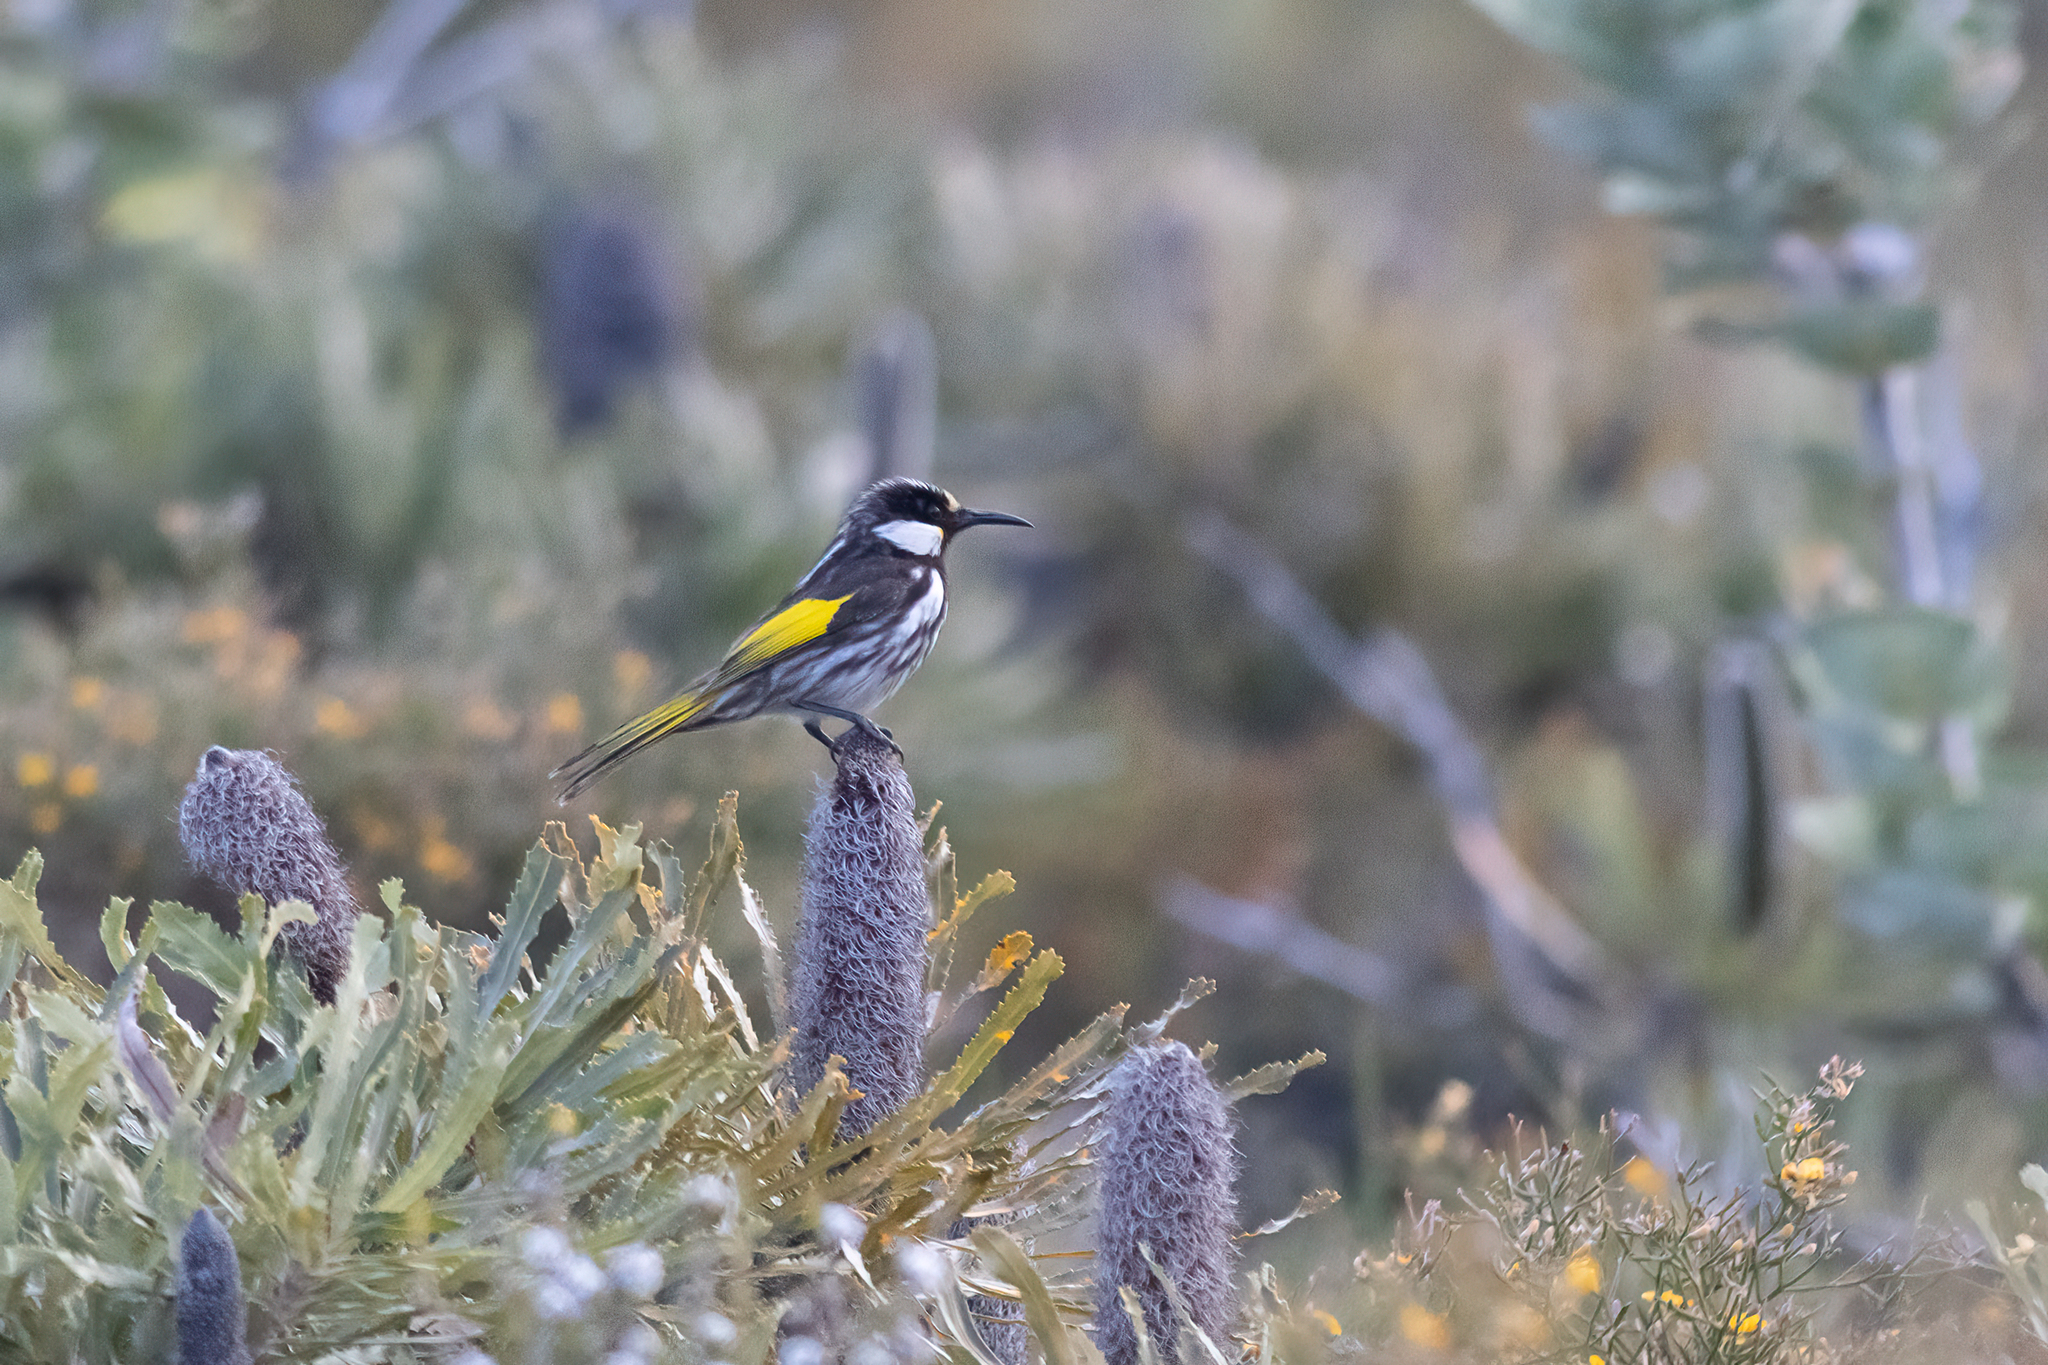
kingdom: Animalia
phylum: Chordata
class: Aves
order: Passeriformes
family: Meliphagidae
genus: Phylidonyris
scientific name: Phylidonyris niger
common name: White-cheeked honeyeater
